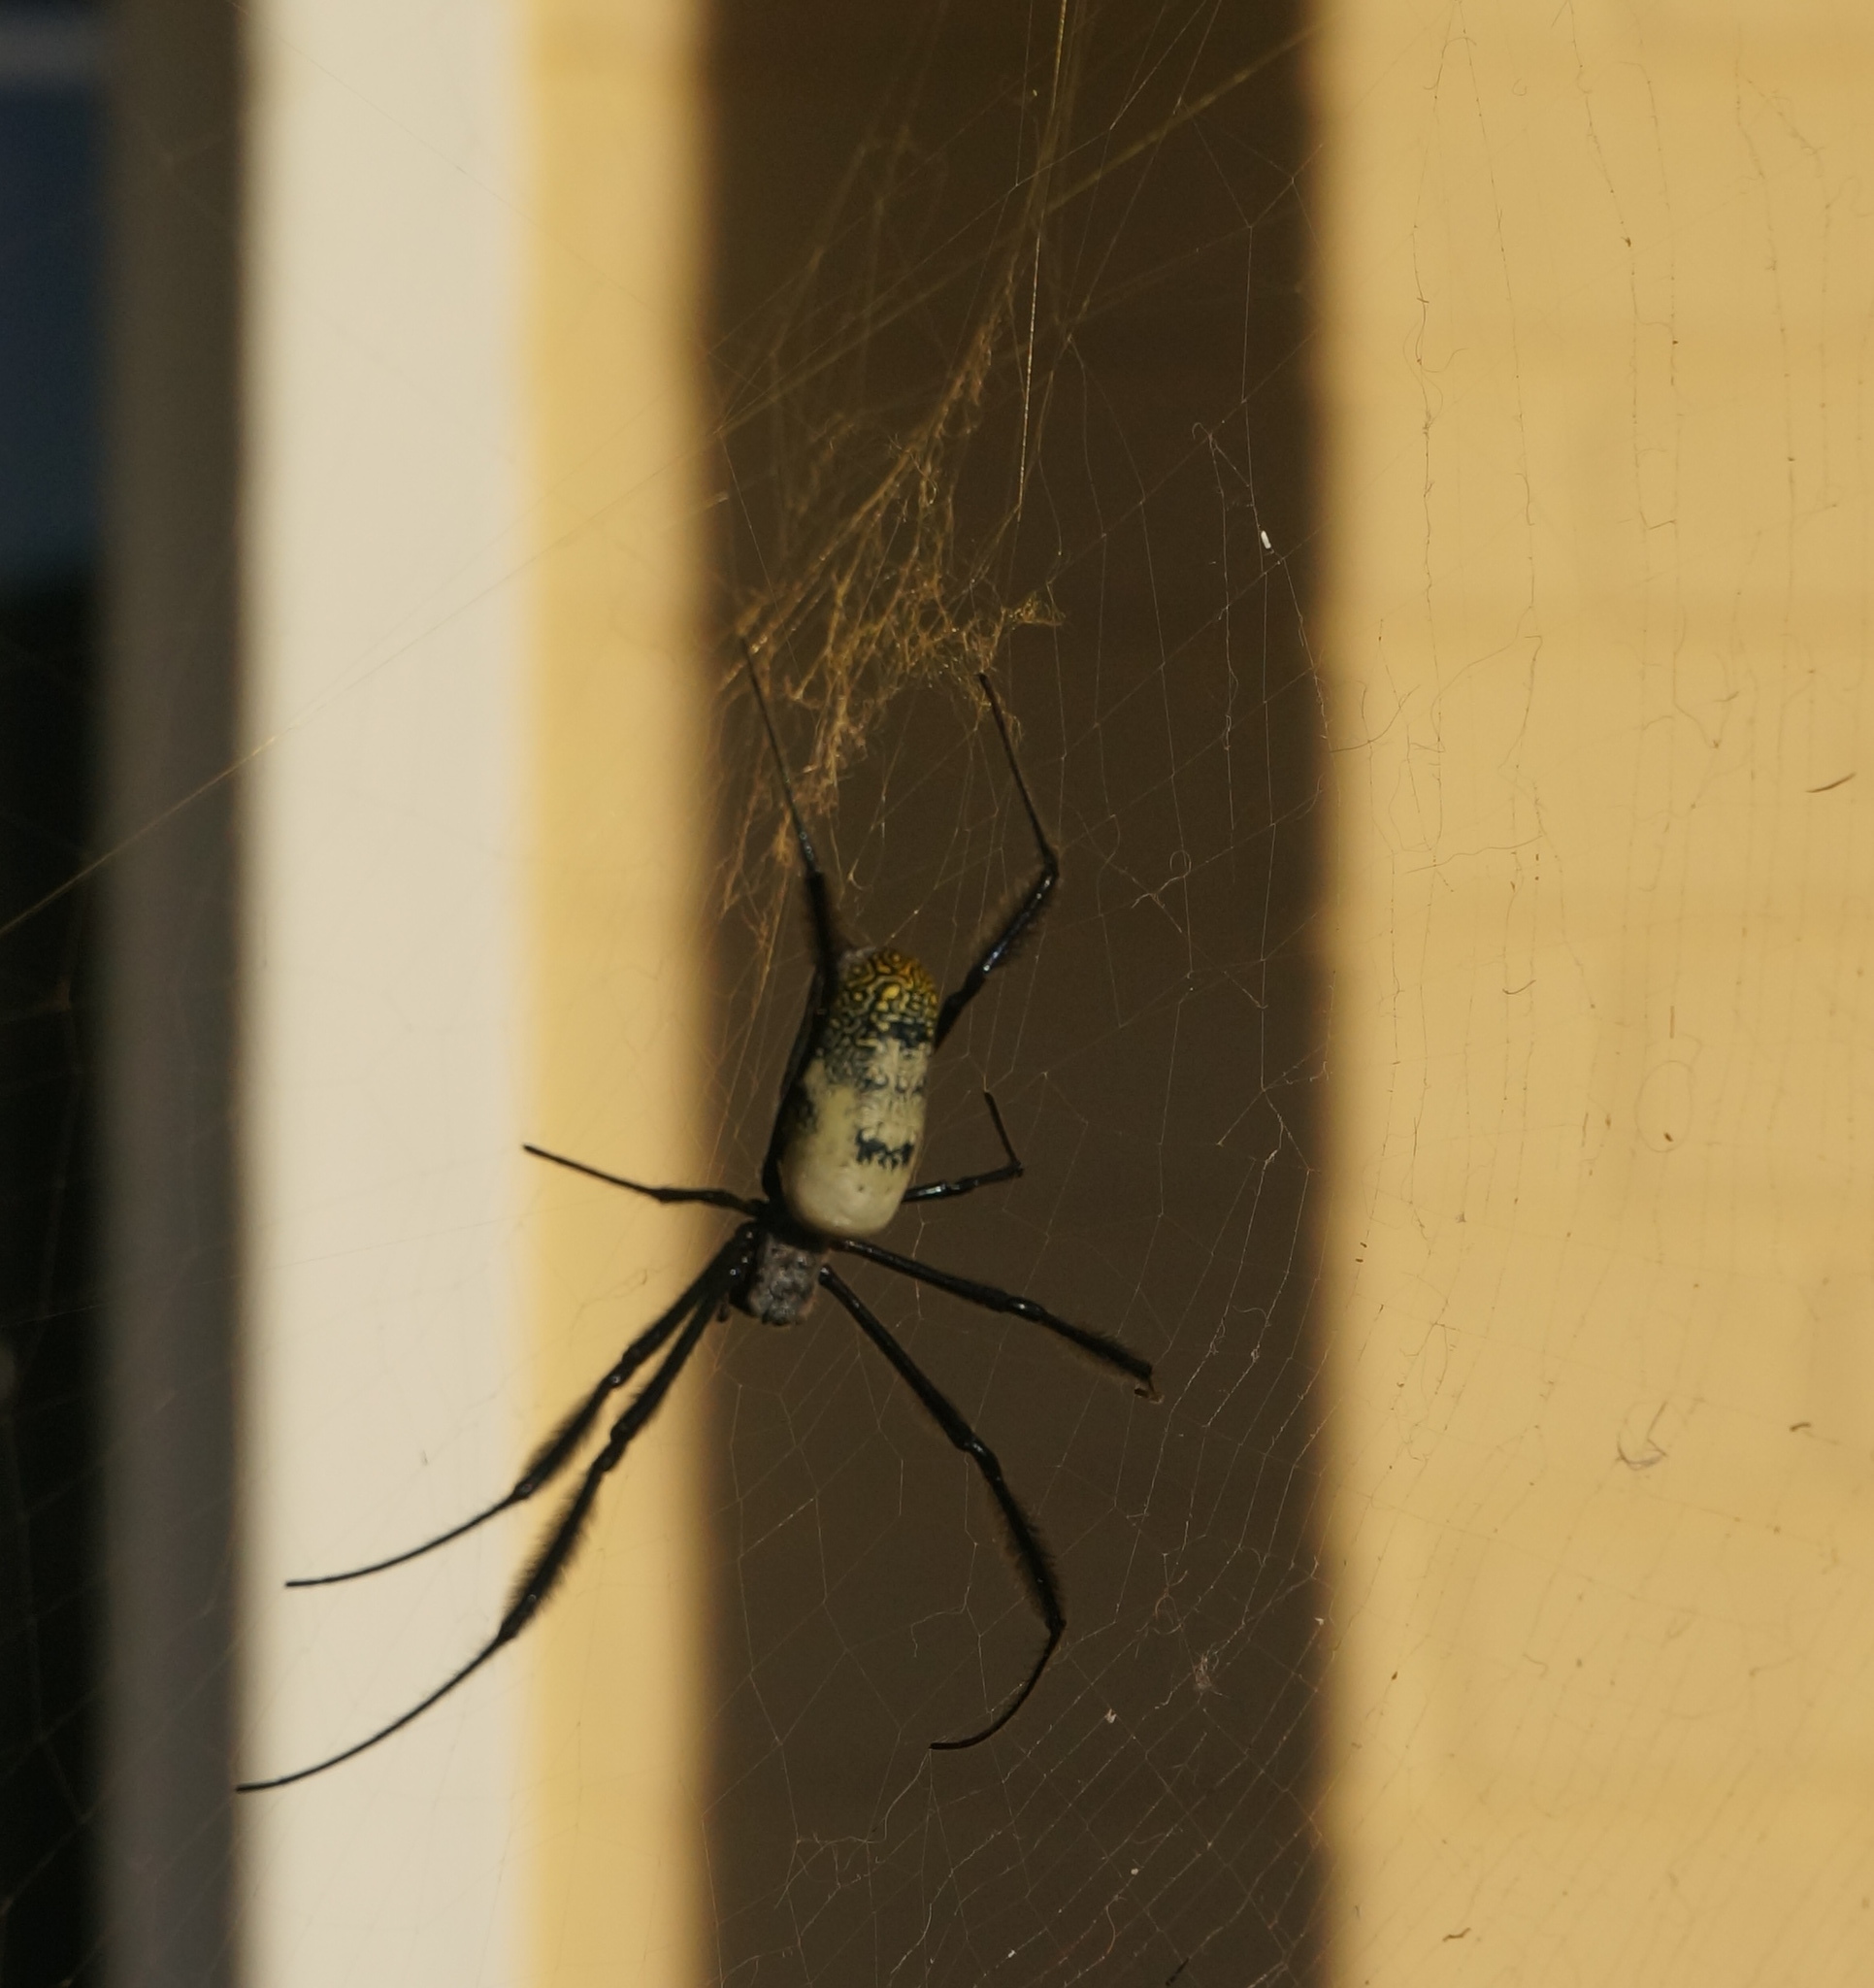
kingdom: Animalia
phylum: Arthropoda
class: Arachnida
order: Araneae
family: Araneidae
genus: Trichonephila
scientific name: Trichonephila fenestrata
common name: Hairy golden orb weaver
